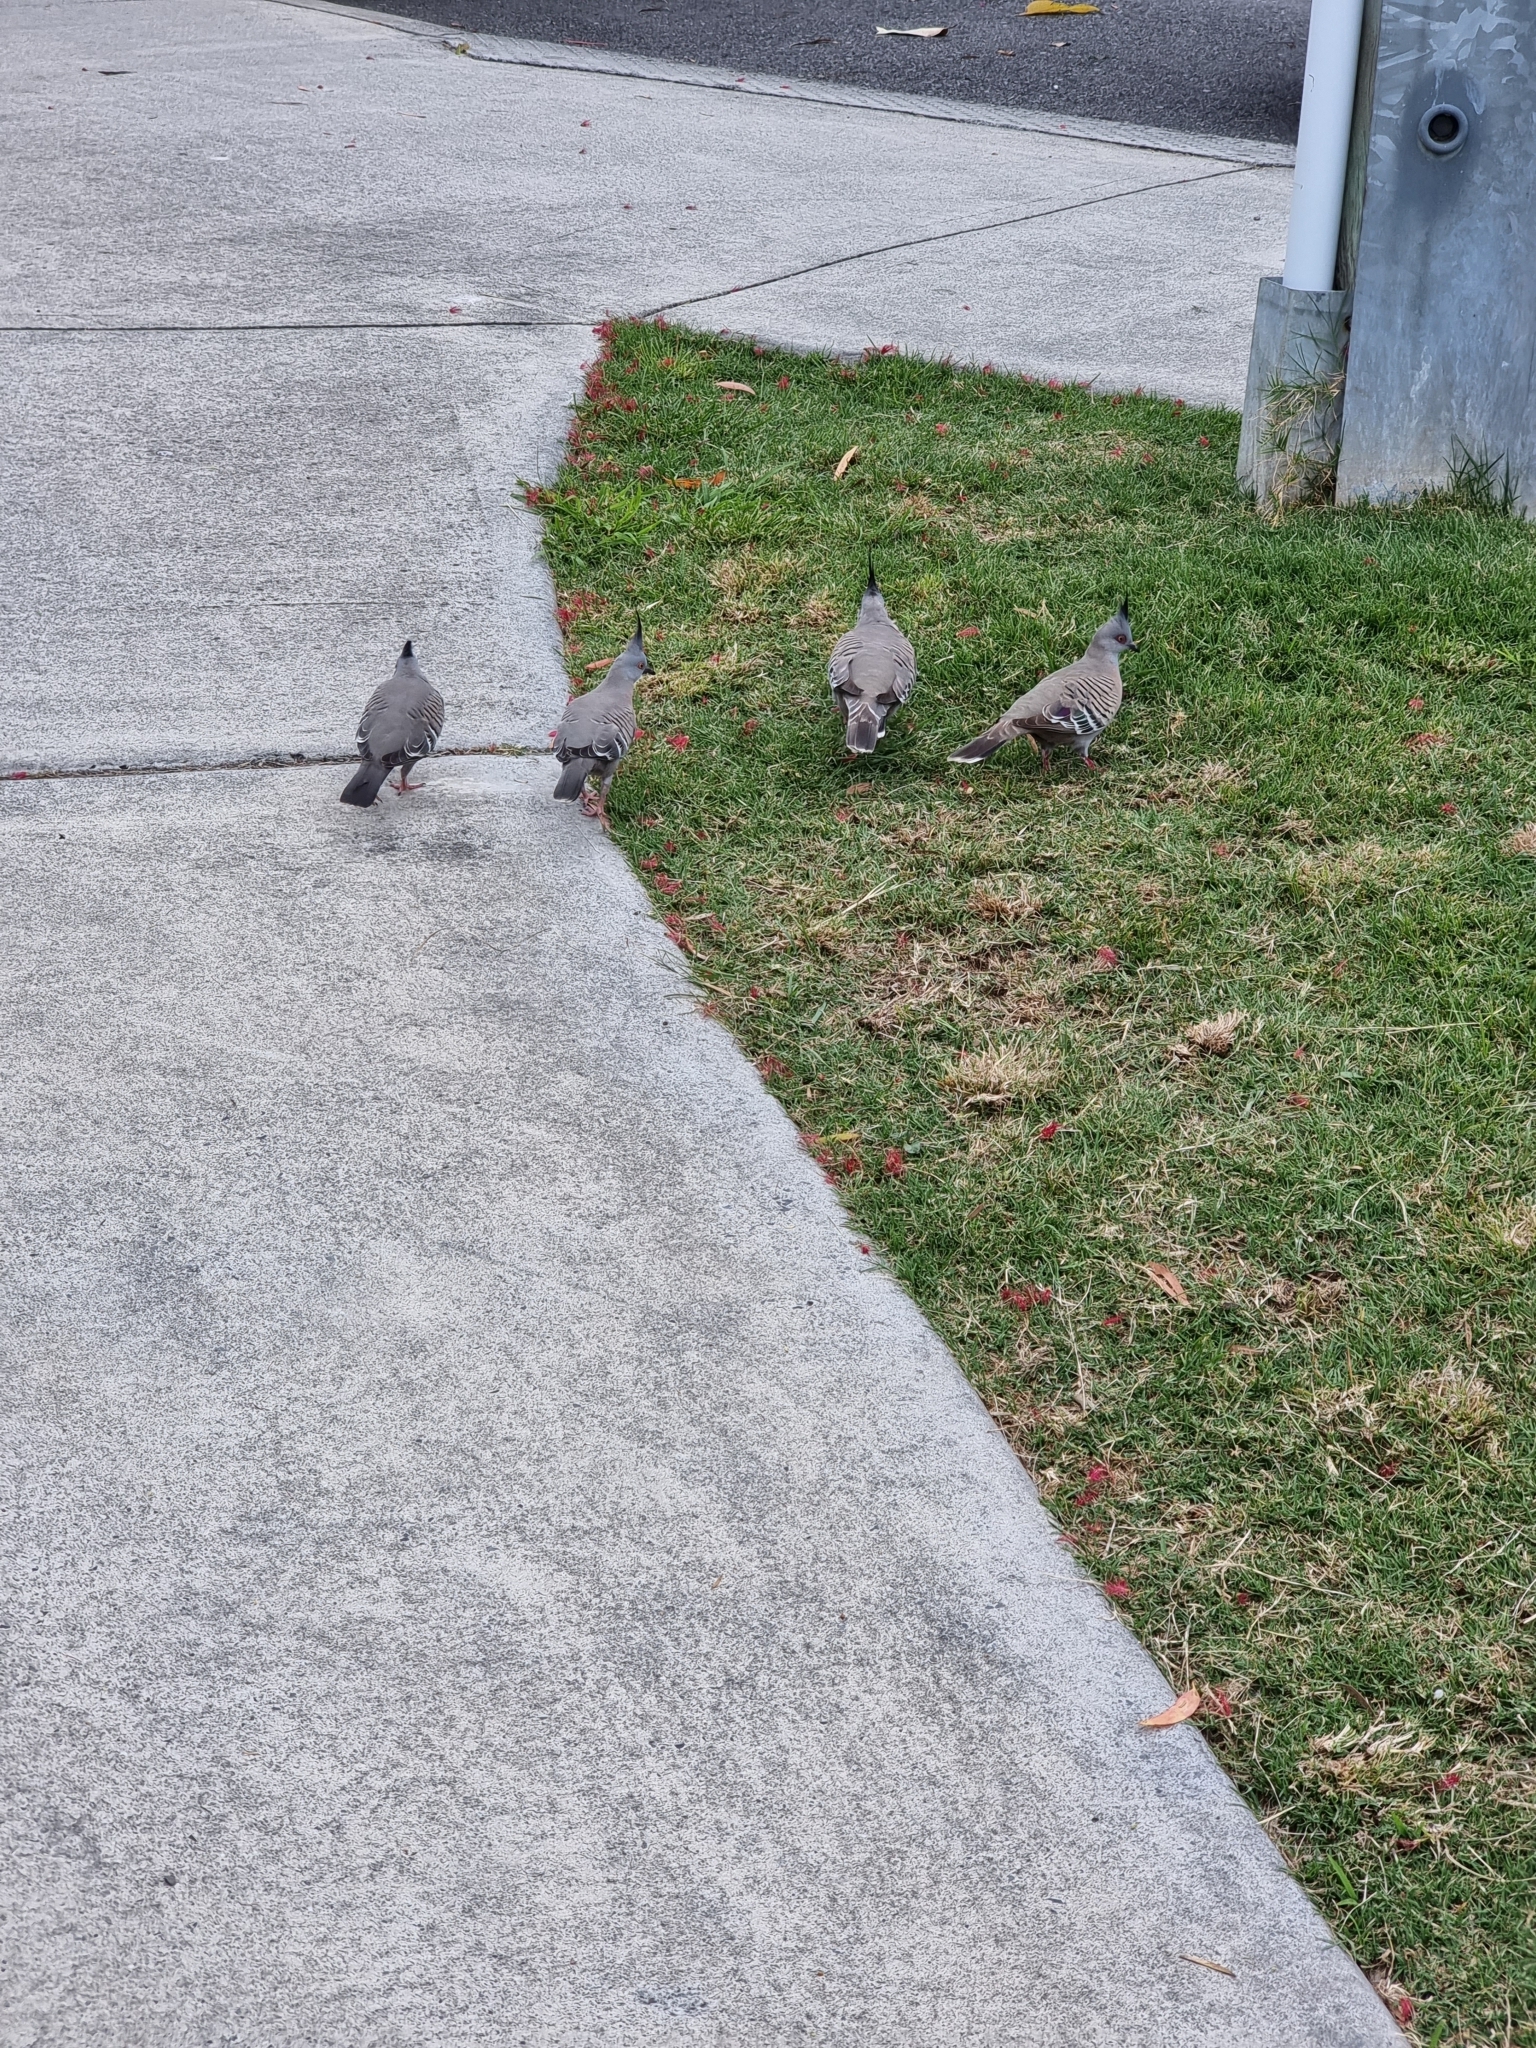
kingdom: Animalia
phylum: Chordata
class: Aves
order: Columbiformes
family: Columbidae
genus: Ocyphaps
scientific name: Ocyphaps lophotes
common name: Crested pigeon
